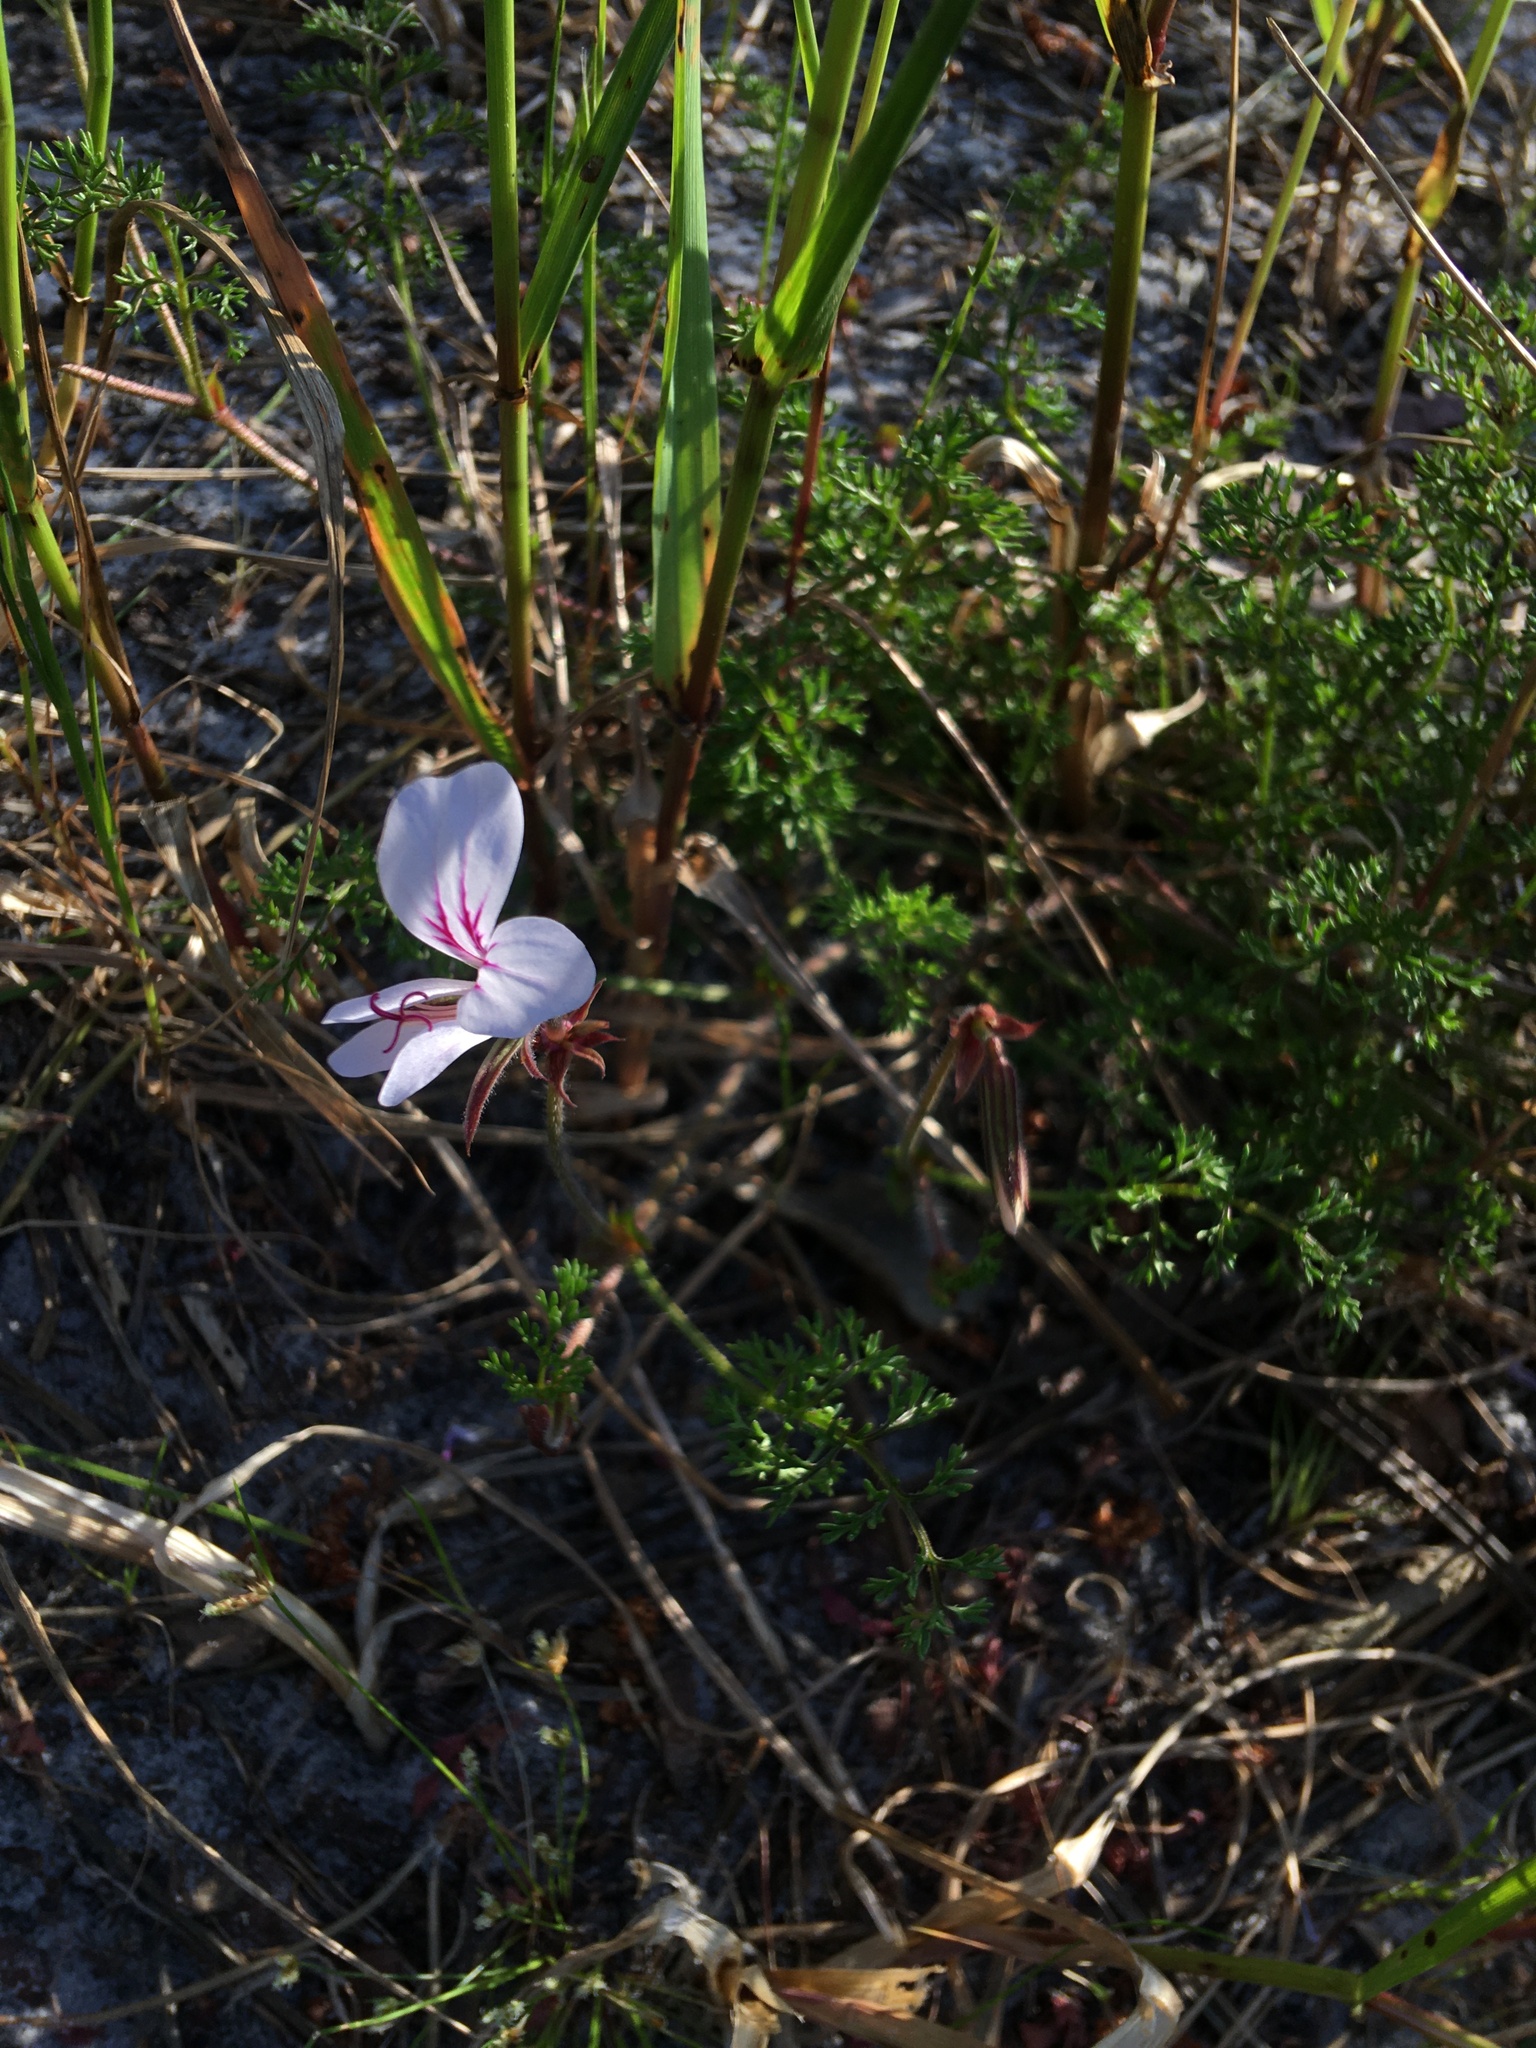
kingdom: Plantae
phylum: Tracheophyta
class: Magnoliopsida
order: Geraniales
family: Geraniaceae
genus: Pelargonium
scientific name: Pelargonium myrrhifolium
